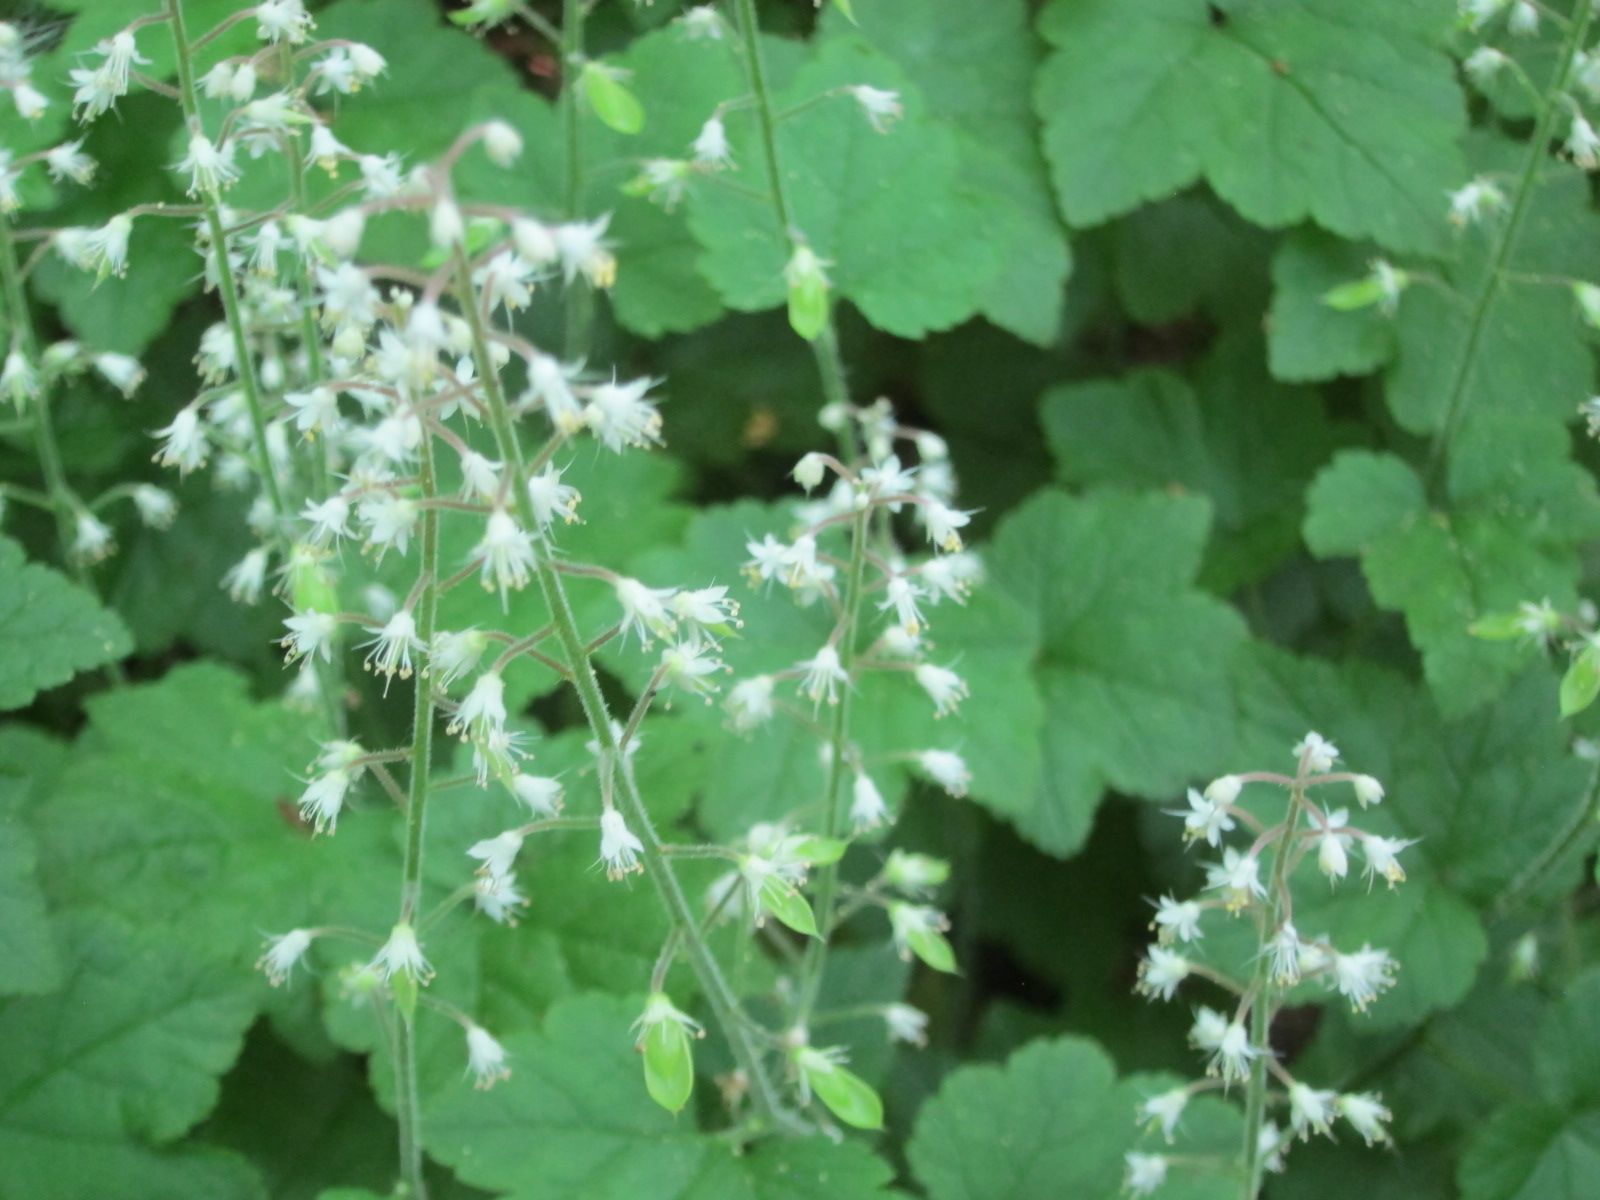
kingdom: Plantae
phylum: Tracheophyta
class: Magnoliopsida
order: Saxifragales
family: Saxifragaceae
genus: Tiarella
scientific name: Tiarella polyphylla
